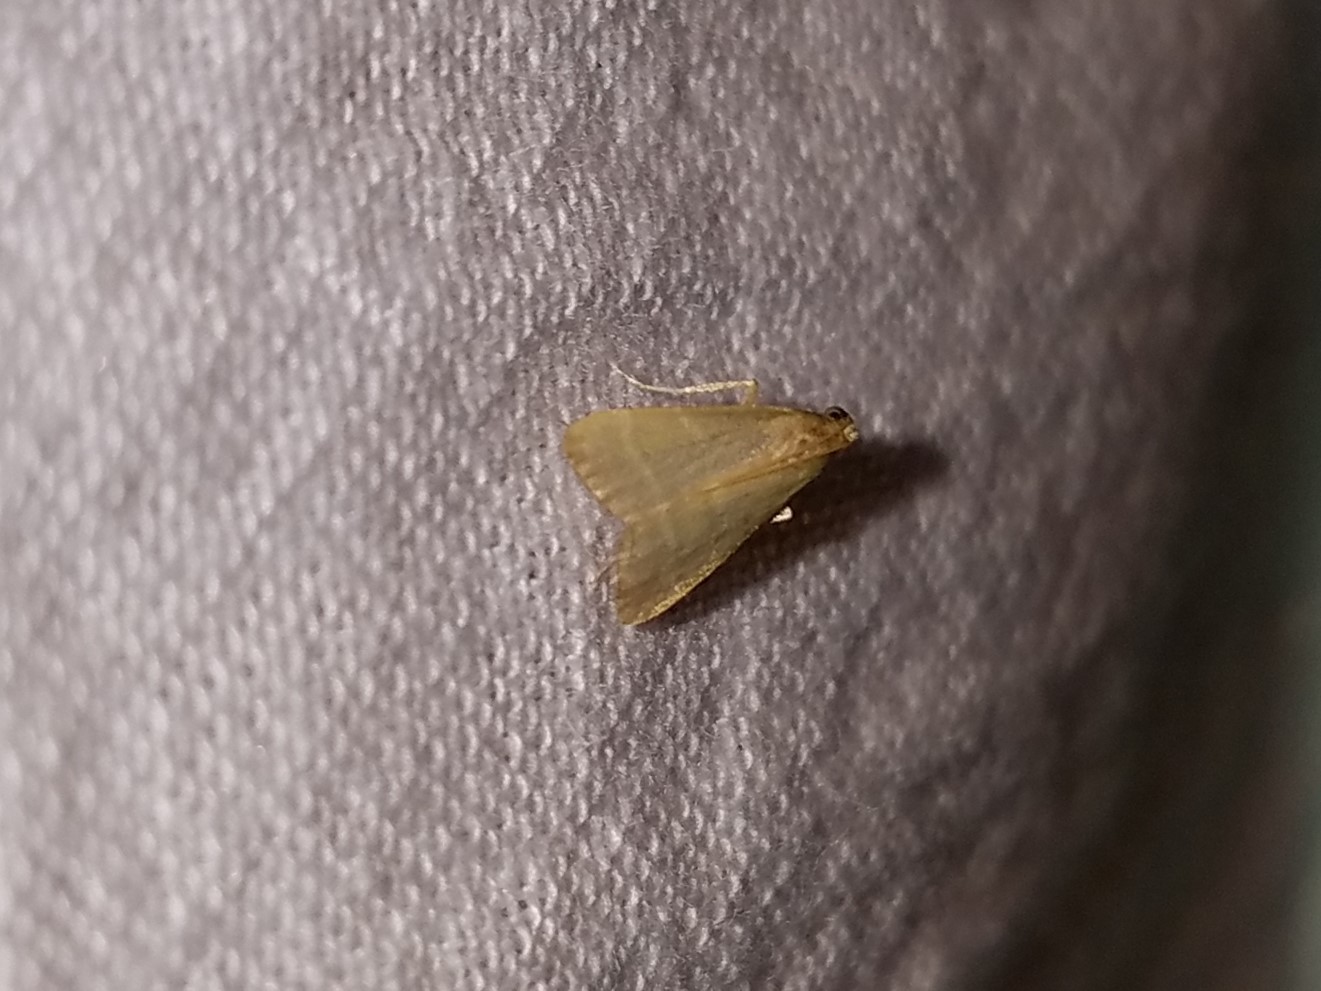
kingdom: Animalia
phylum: Arthropoda
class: Insecta
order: Lepidoptera
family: Pyralidae
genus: Arta
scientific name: Arta olivalis
